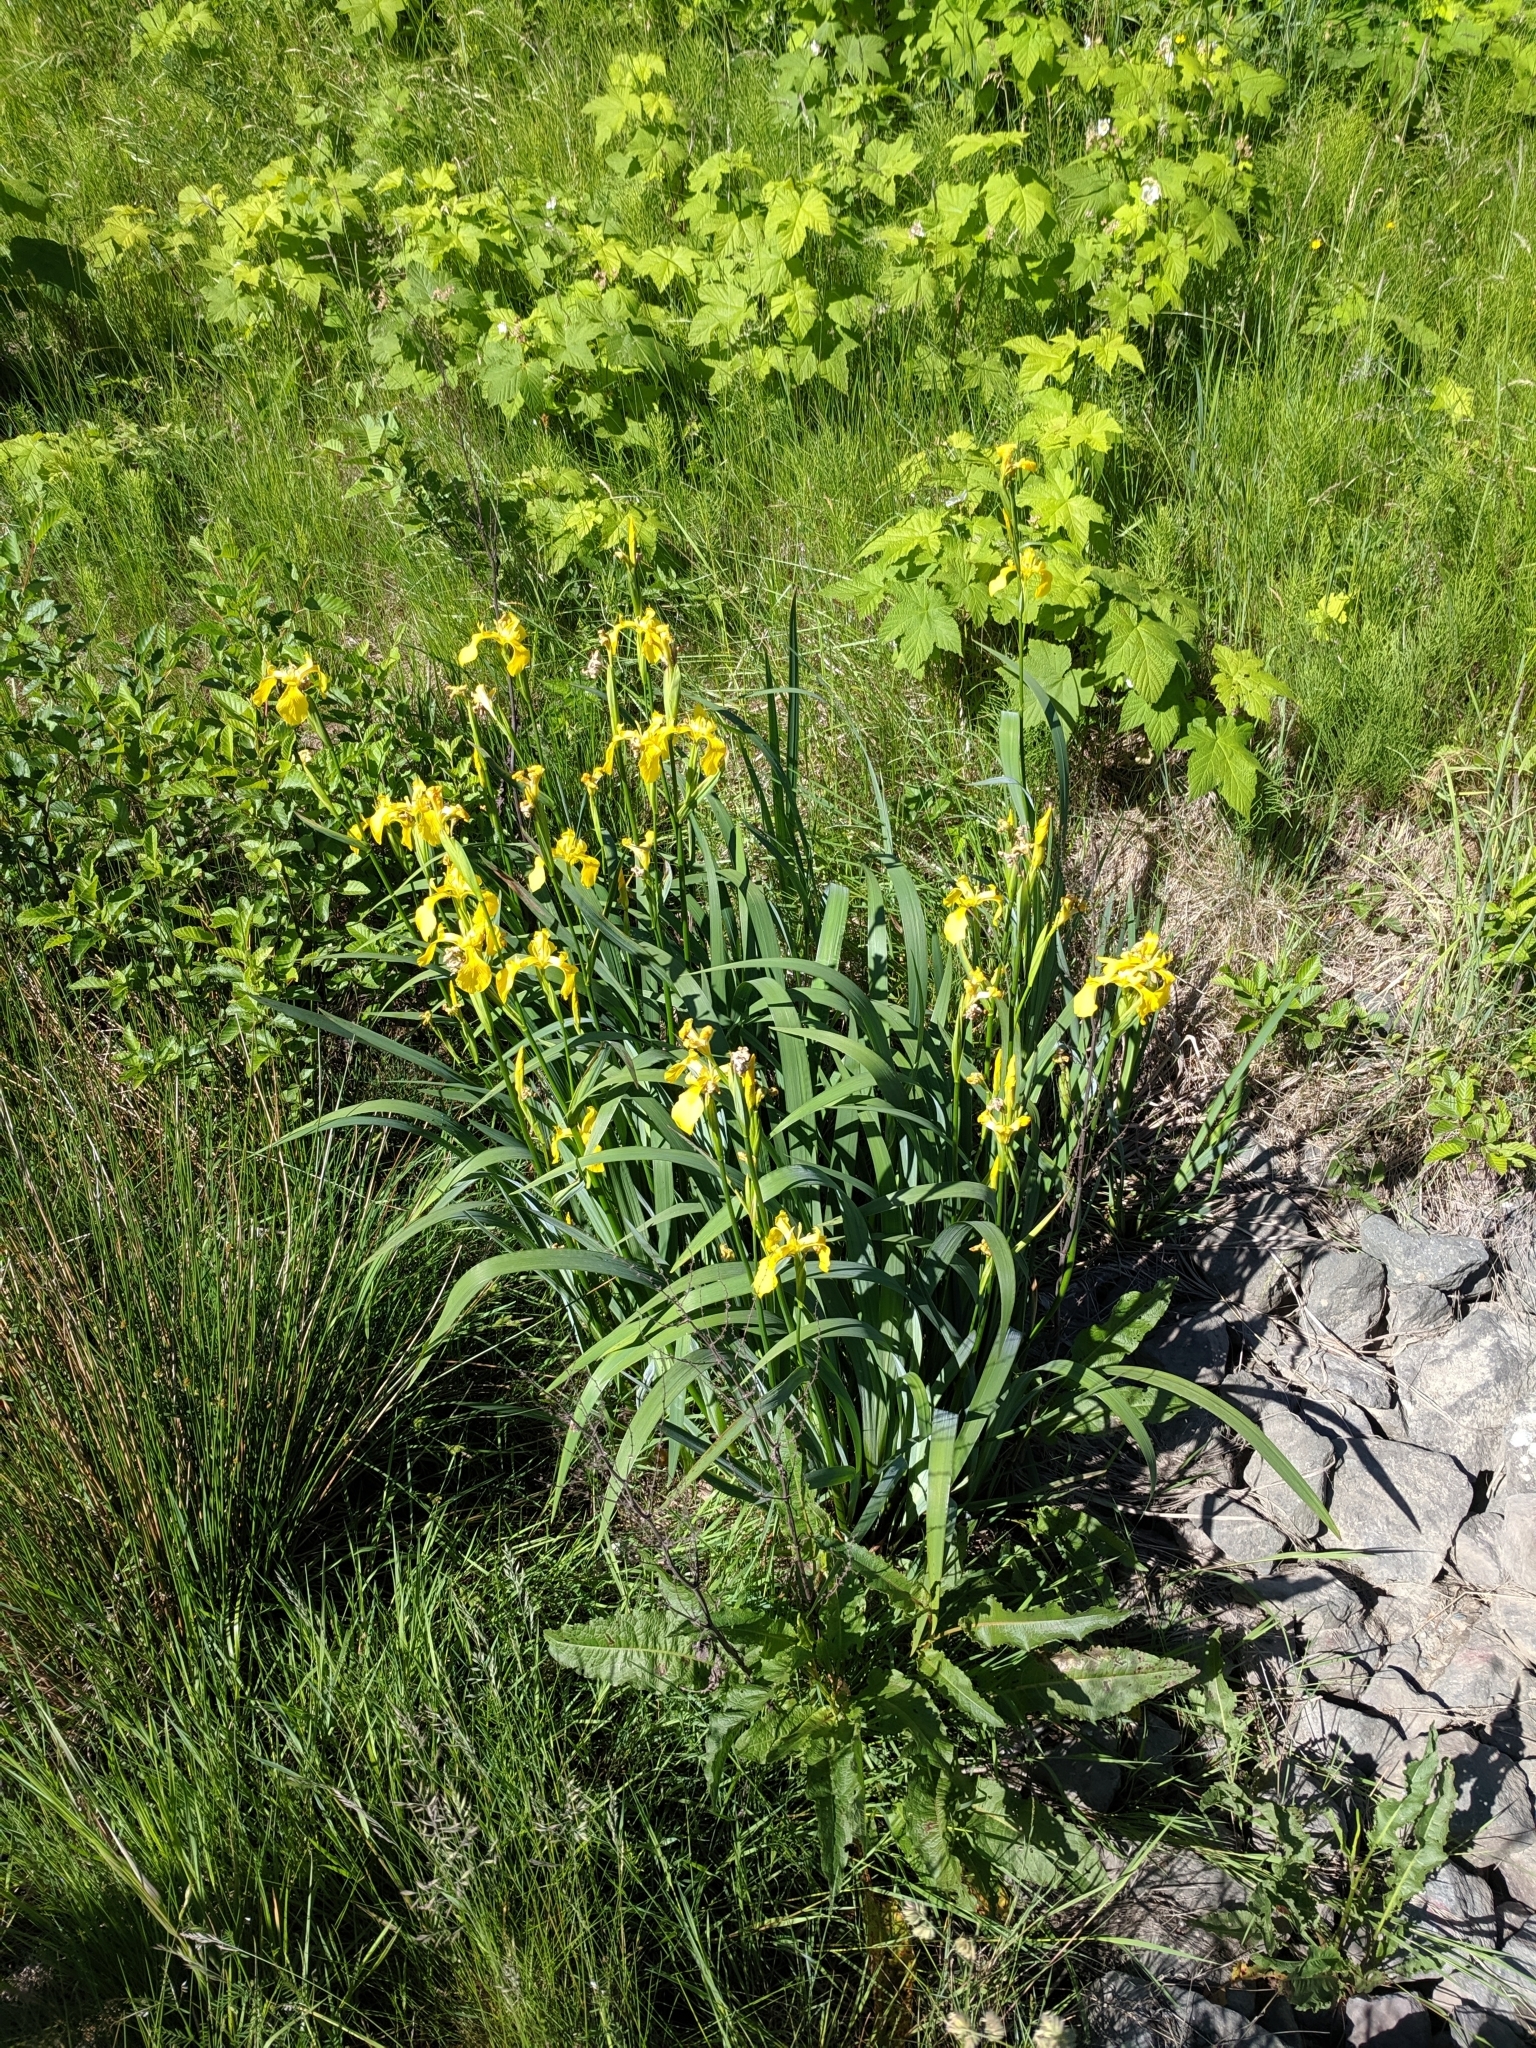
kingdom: Plantae
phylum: Tracheophyta
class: Liliopsida
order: Asparagales
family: Iridaceae
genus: Iris
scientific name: Iris pseudacorus
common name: Yellow flag
